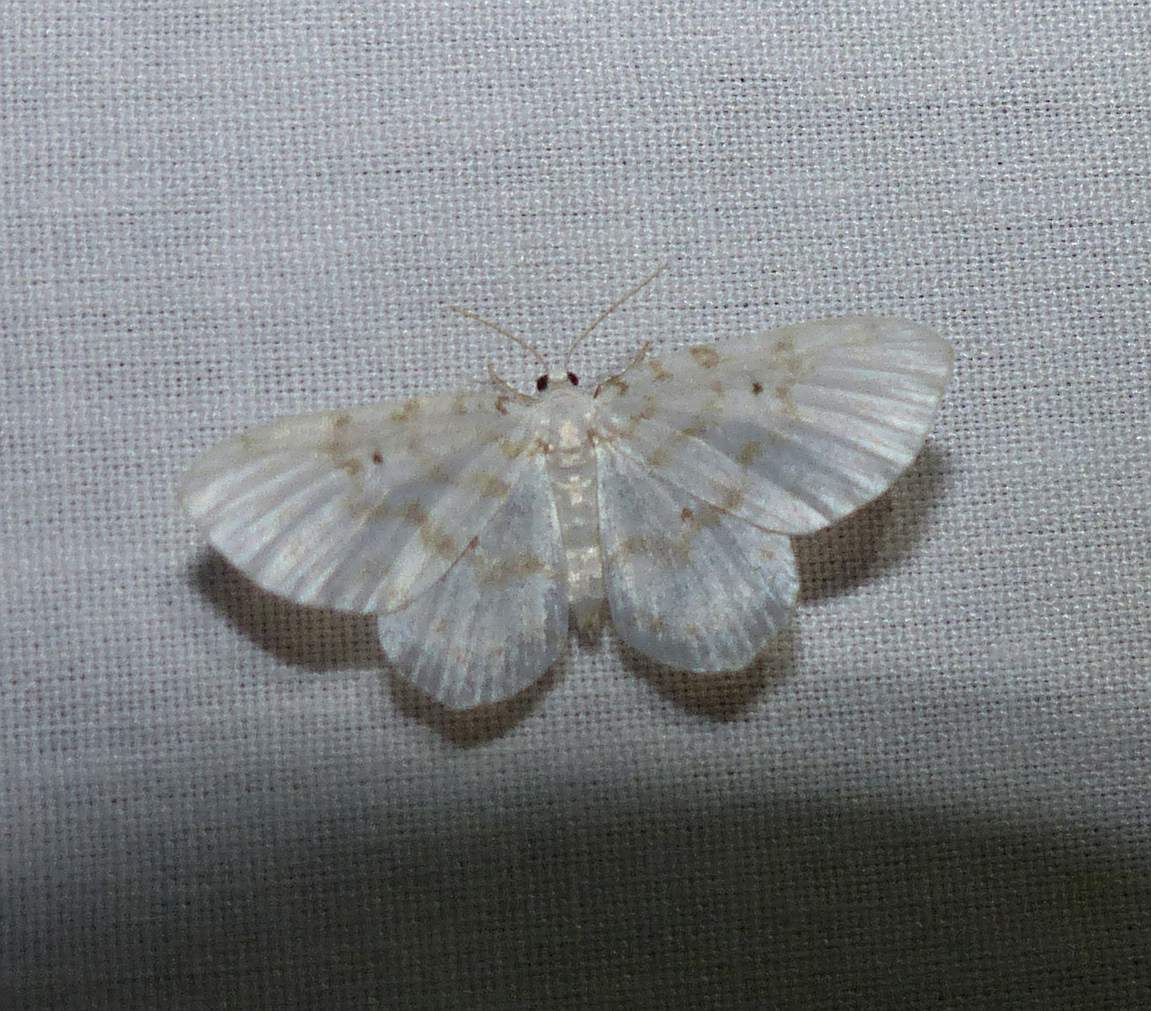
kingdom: Animalia
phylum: Arthropoda
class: Insecta
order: Lepidoptera
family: Geometridae
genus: Hydrelia
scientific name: Hydrelia albifera
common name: Fragile white carpet
